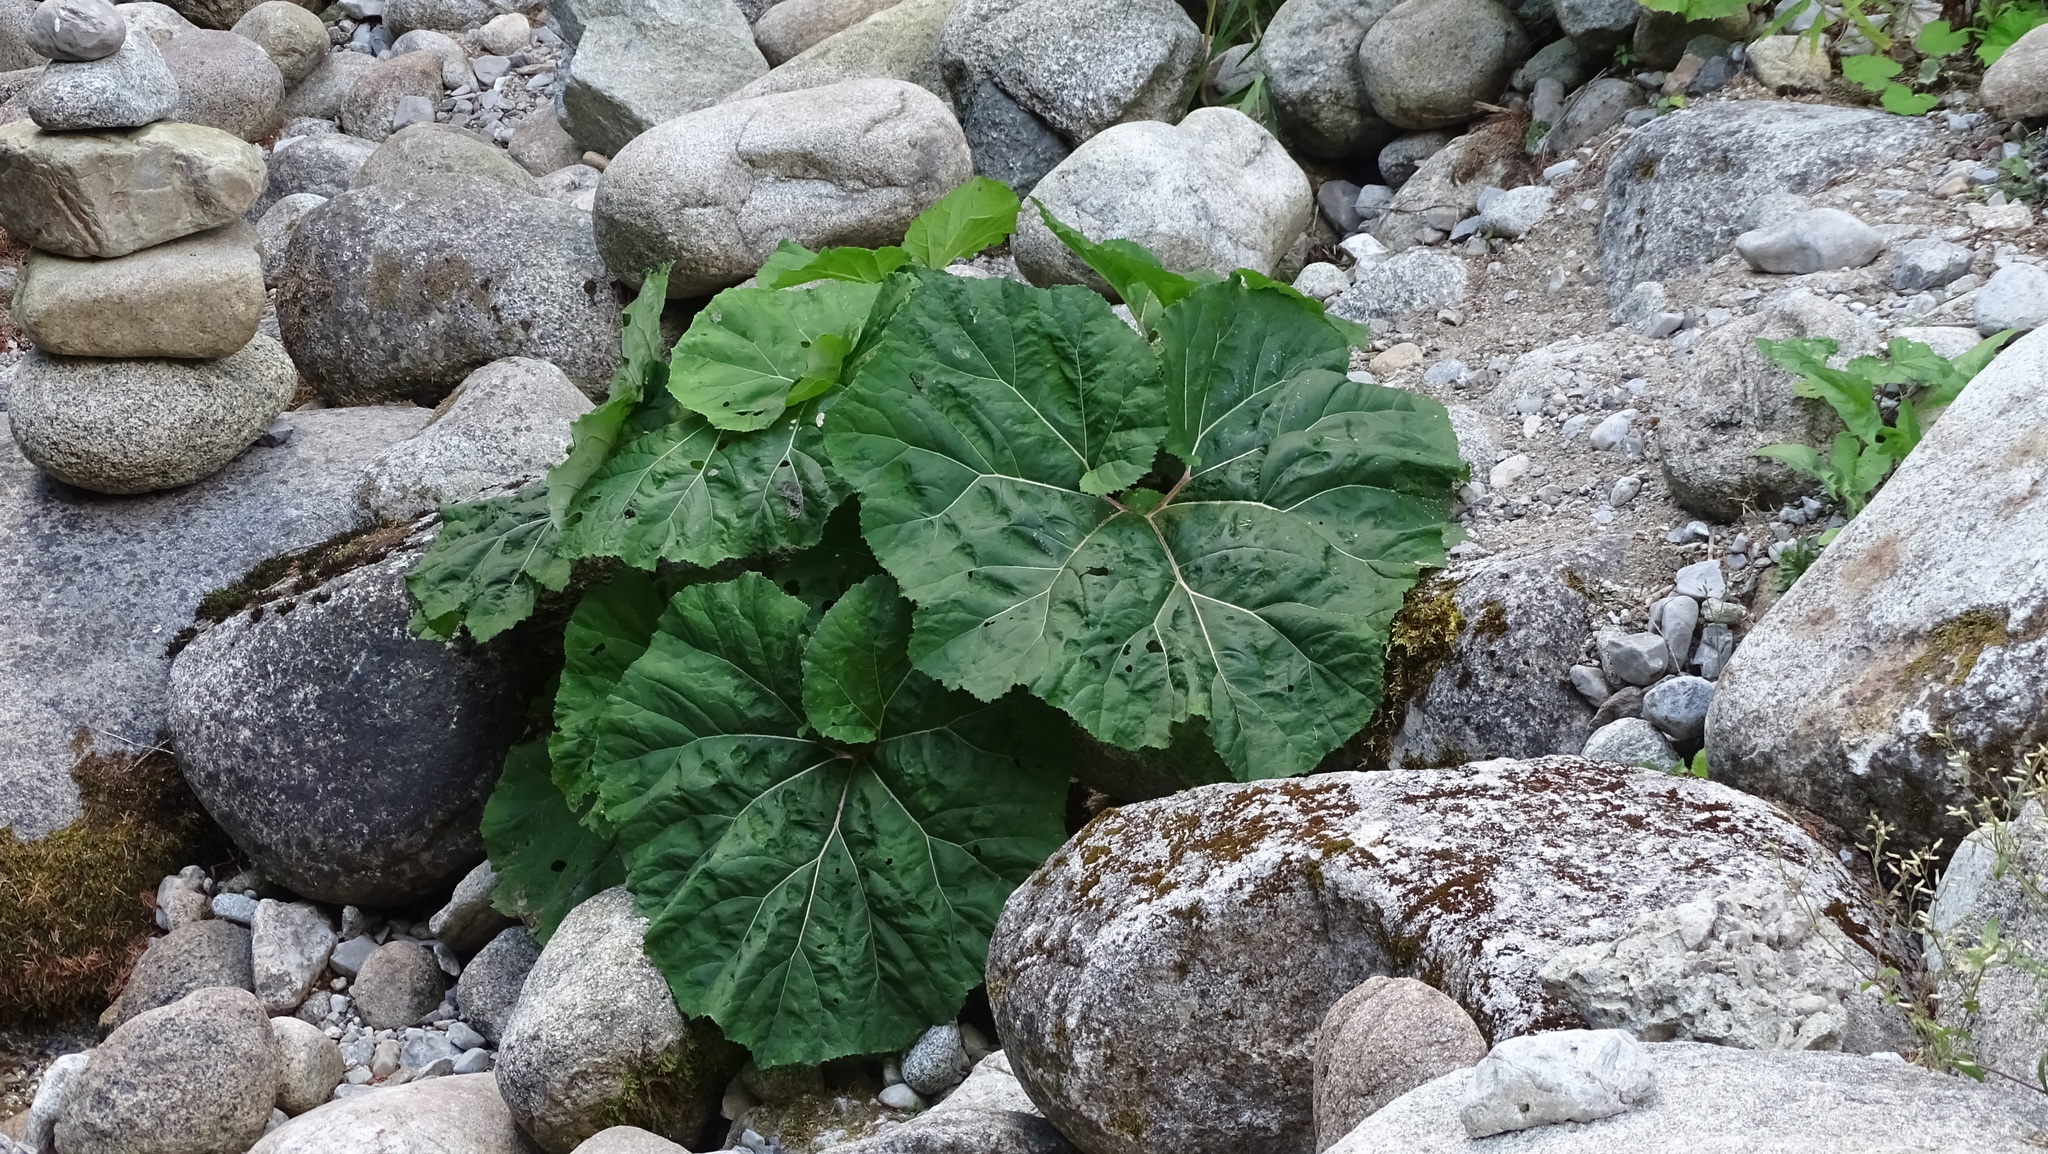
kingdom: Plantae
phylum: Tracheophyta
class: Magnoliopsida
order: Asterales
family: Asteraceae
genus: Petasites
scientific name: Petasites hybridus
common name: Butterbur
